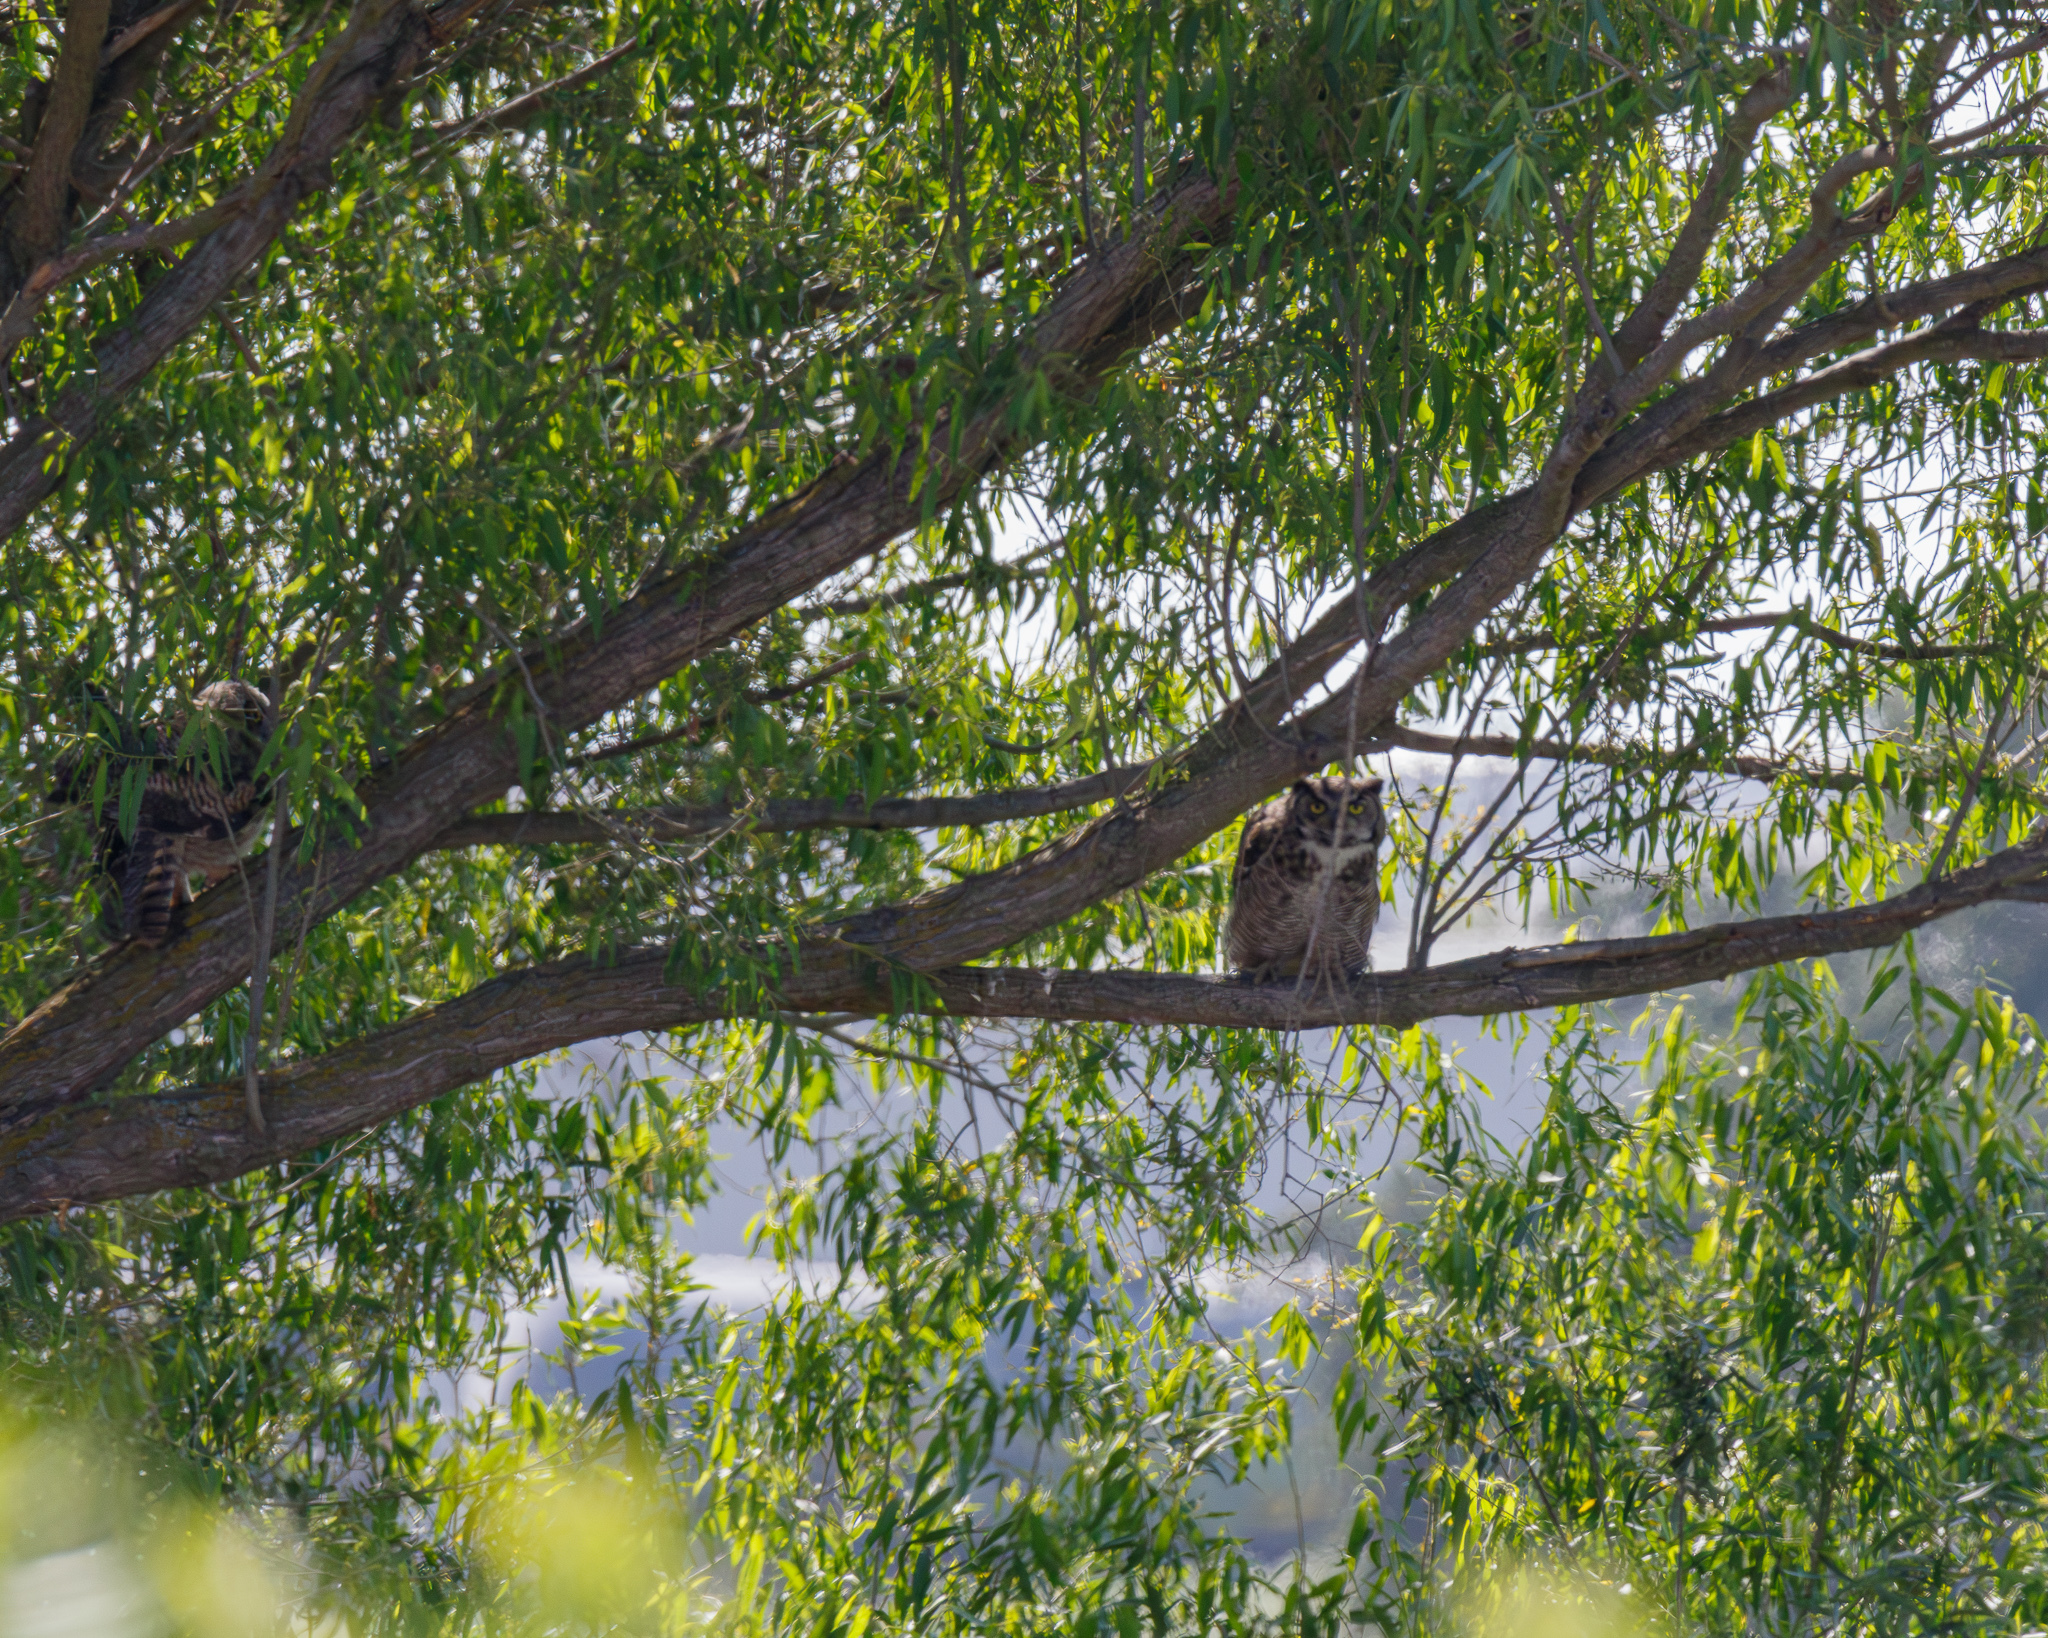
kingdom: Animalia
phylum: Chordata
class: Aves
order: Strigiformes
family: Strigidae
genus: Bubo
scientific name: Bubo virginianus
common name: Great horned owl
